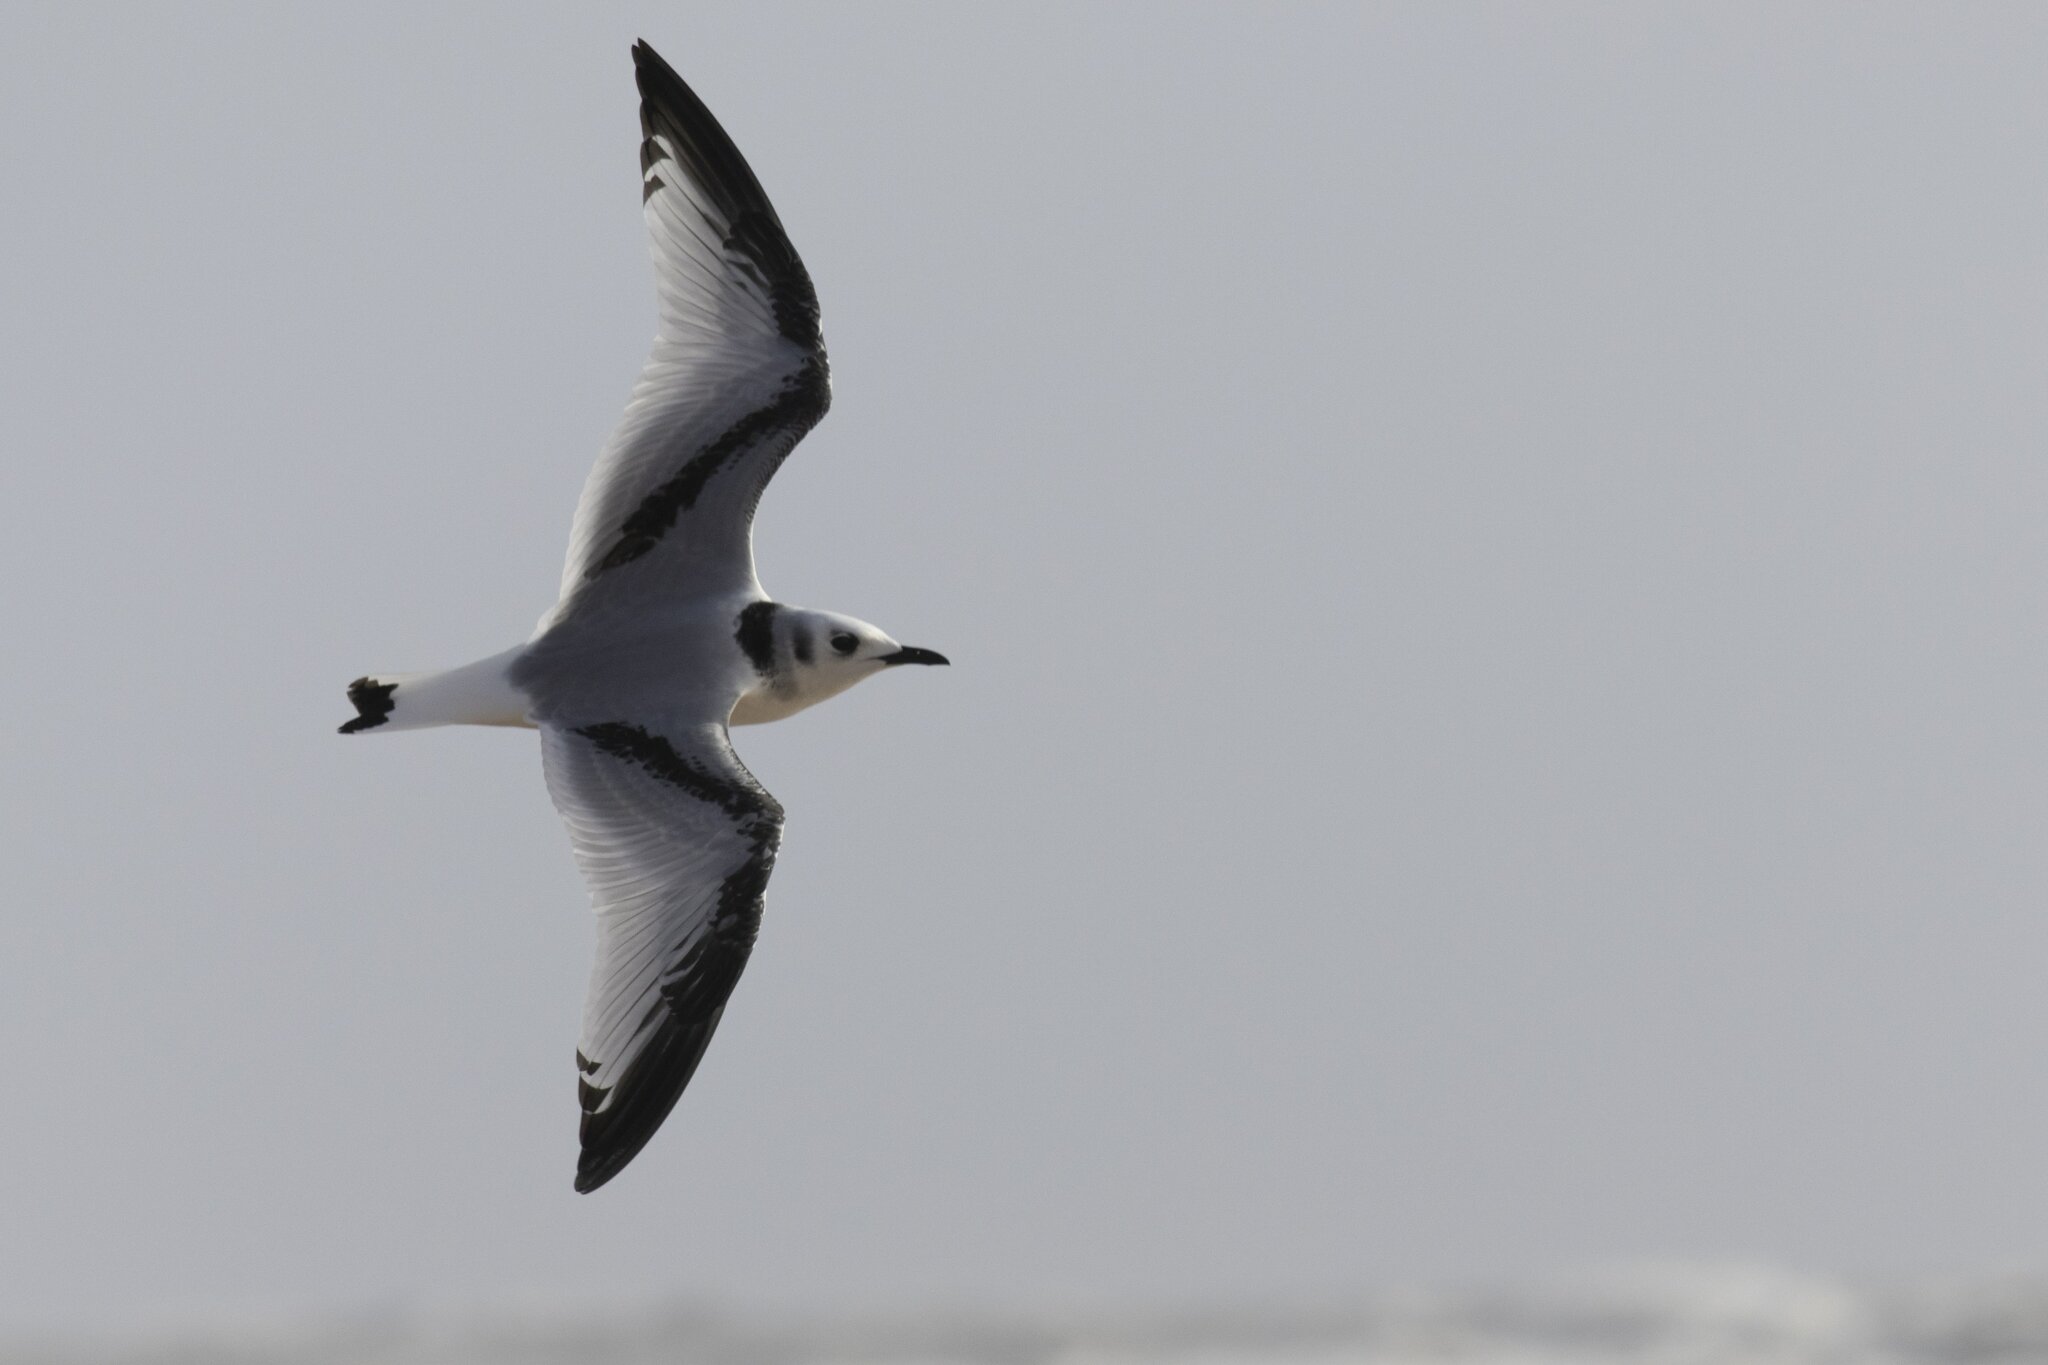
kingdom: Animalia
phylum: Chordata
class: Aves
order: Charadriiformes
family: Laridae
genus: Rissa
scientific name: Rissa tridactyla
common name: Black-legged kittiwake
